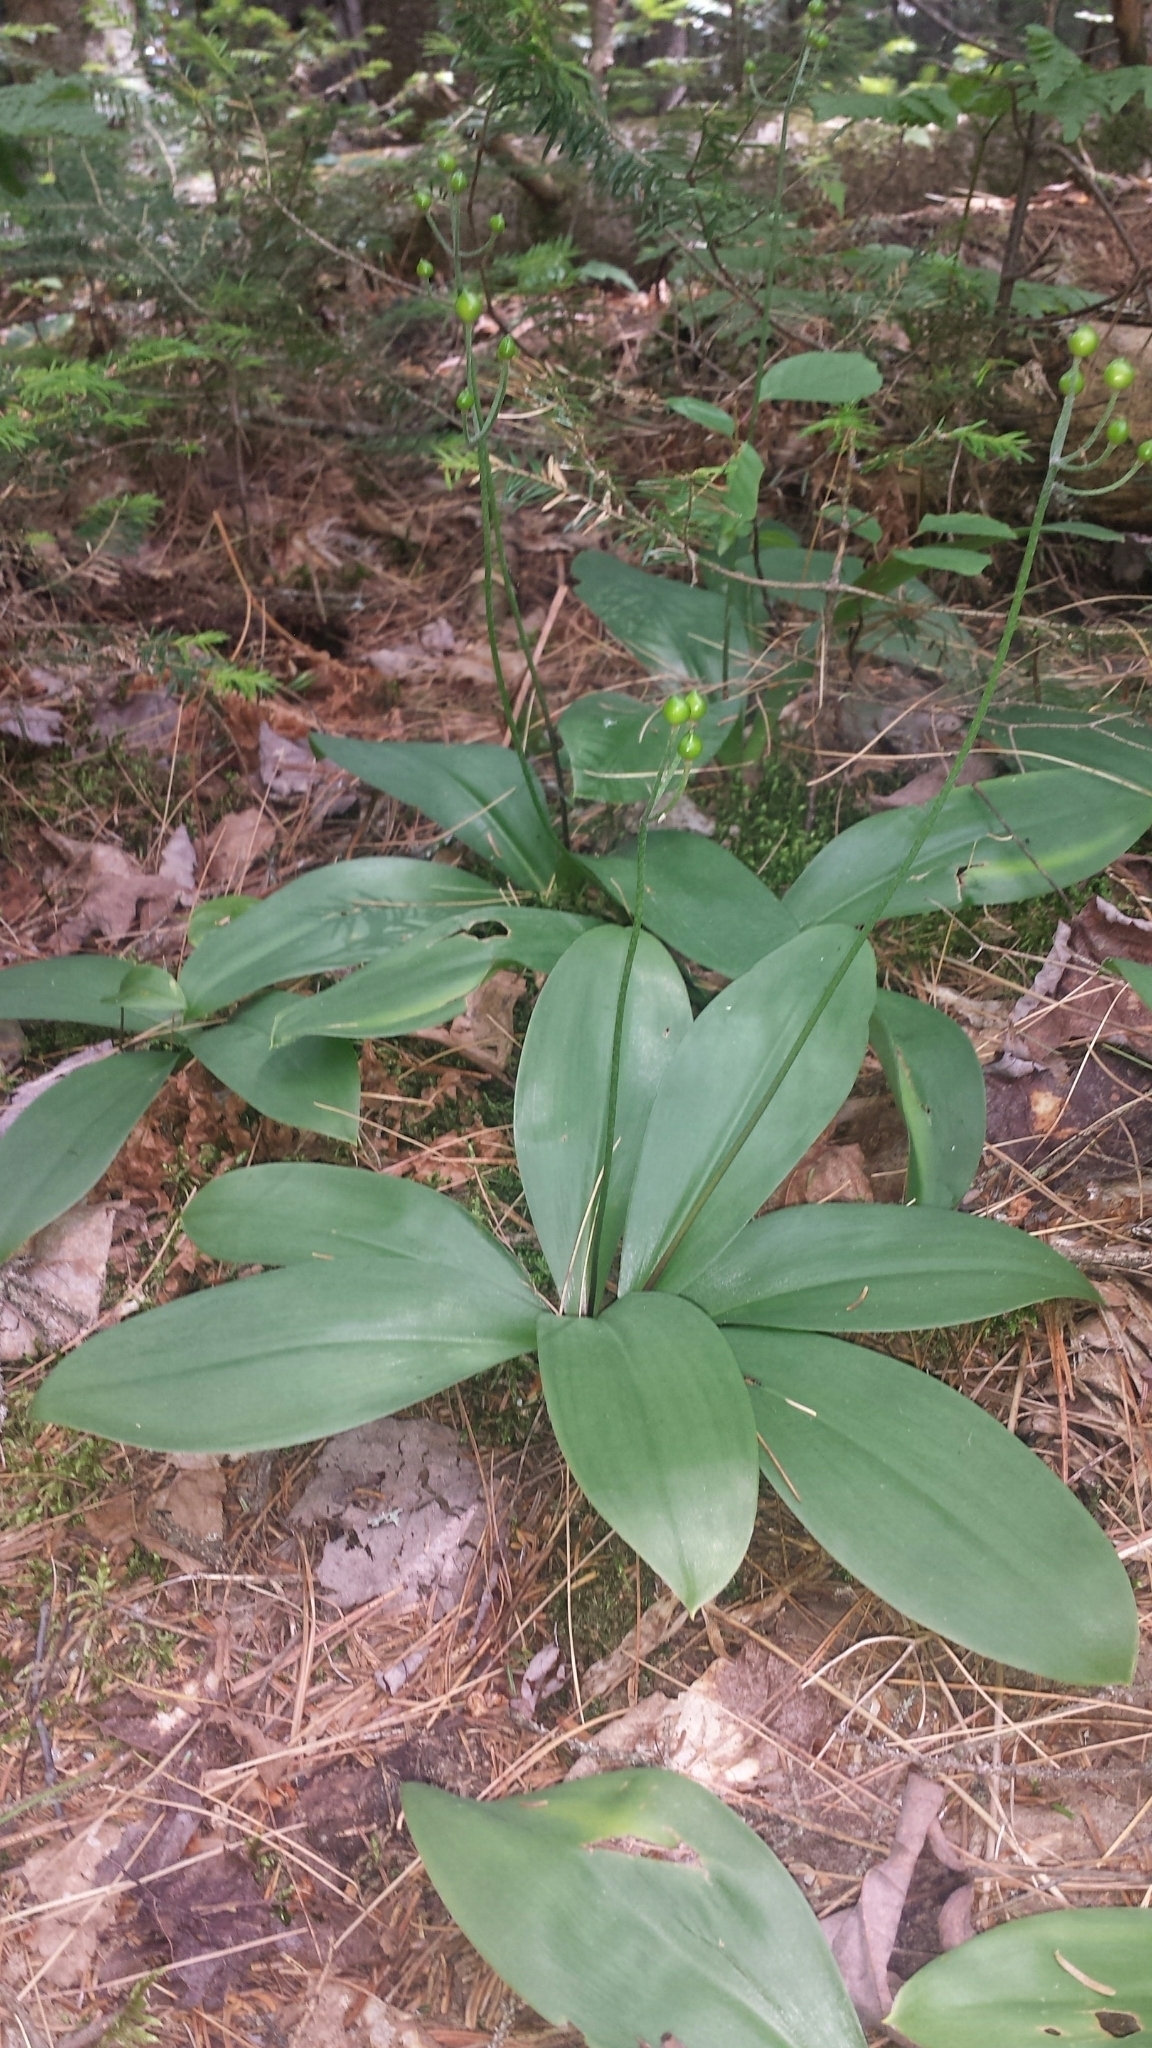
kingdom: Plantae
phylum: Tracheophyta
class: Liliopsida
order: Liliales
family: Liliaceae
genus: Clintonia
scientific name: Clintonia borealis
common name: Yellow clintonia
